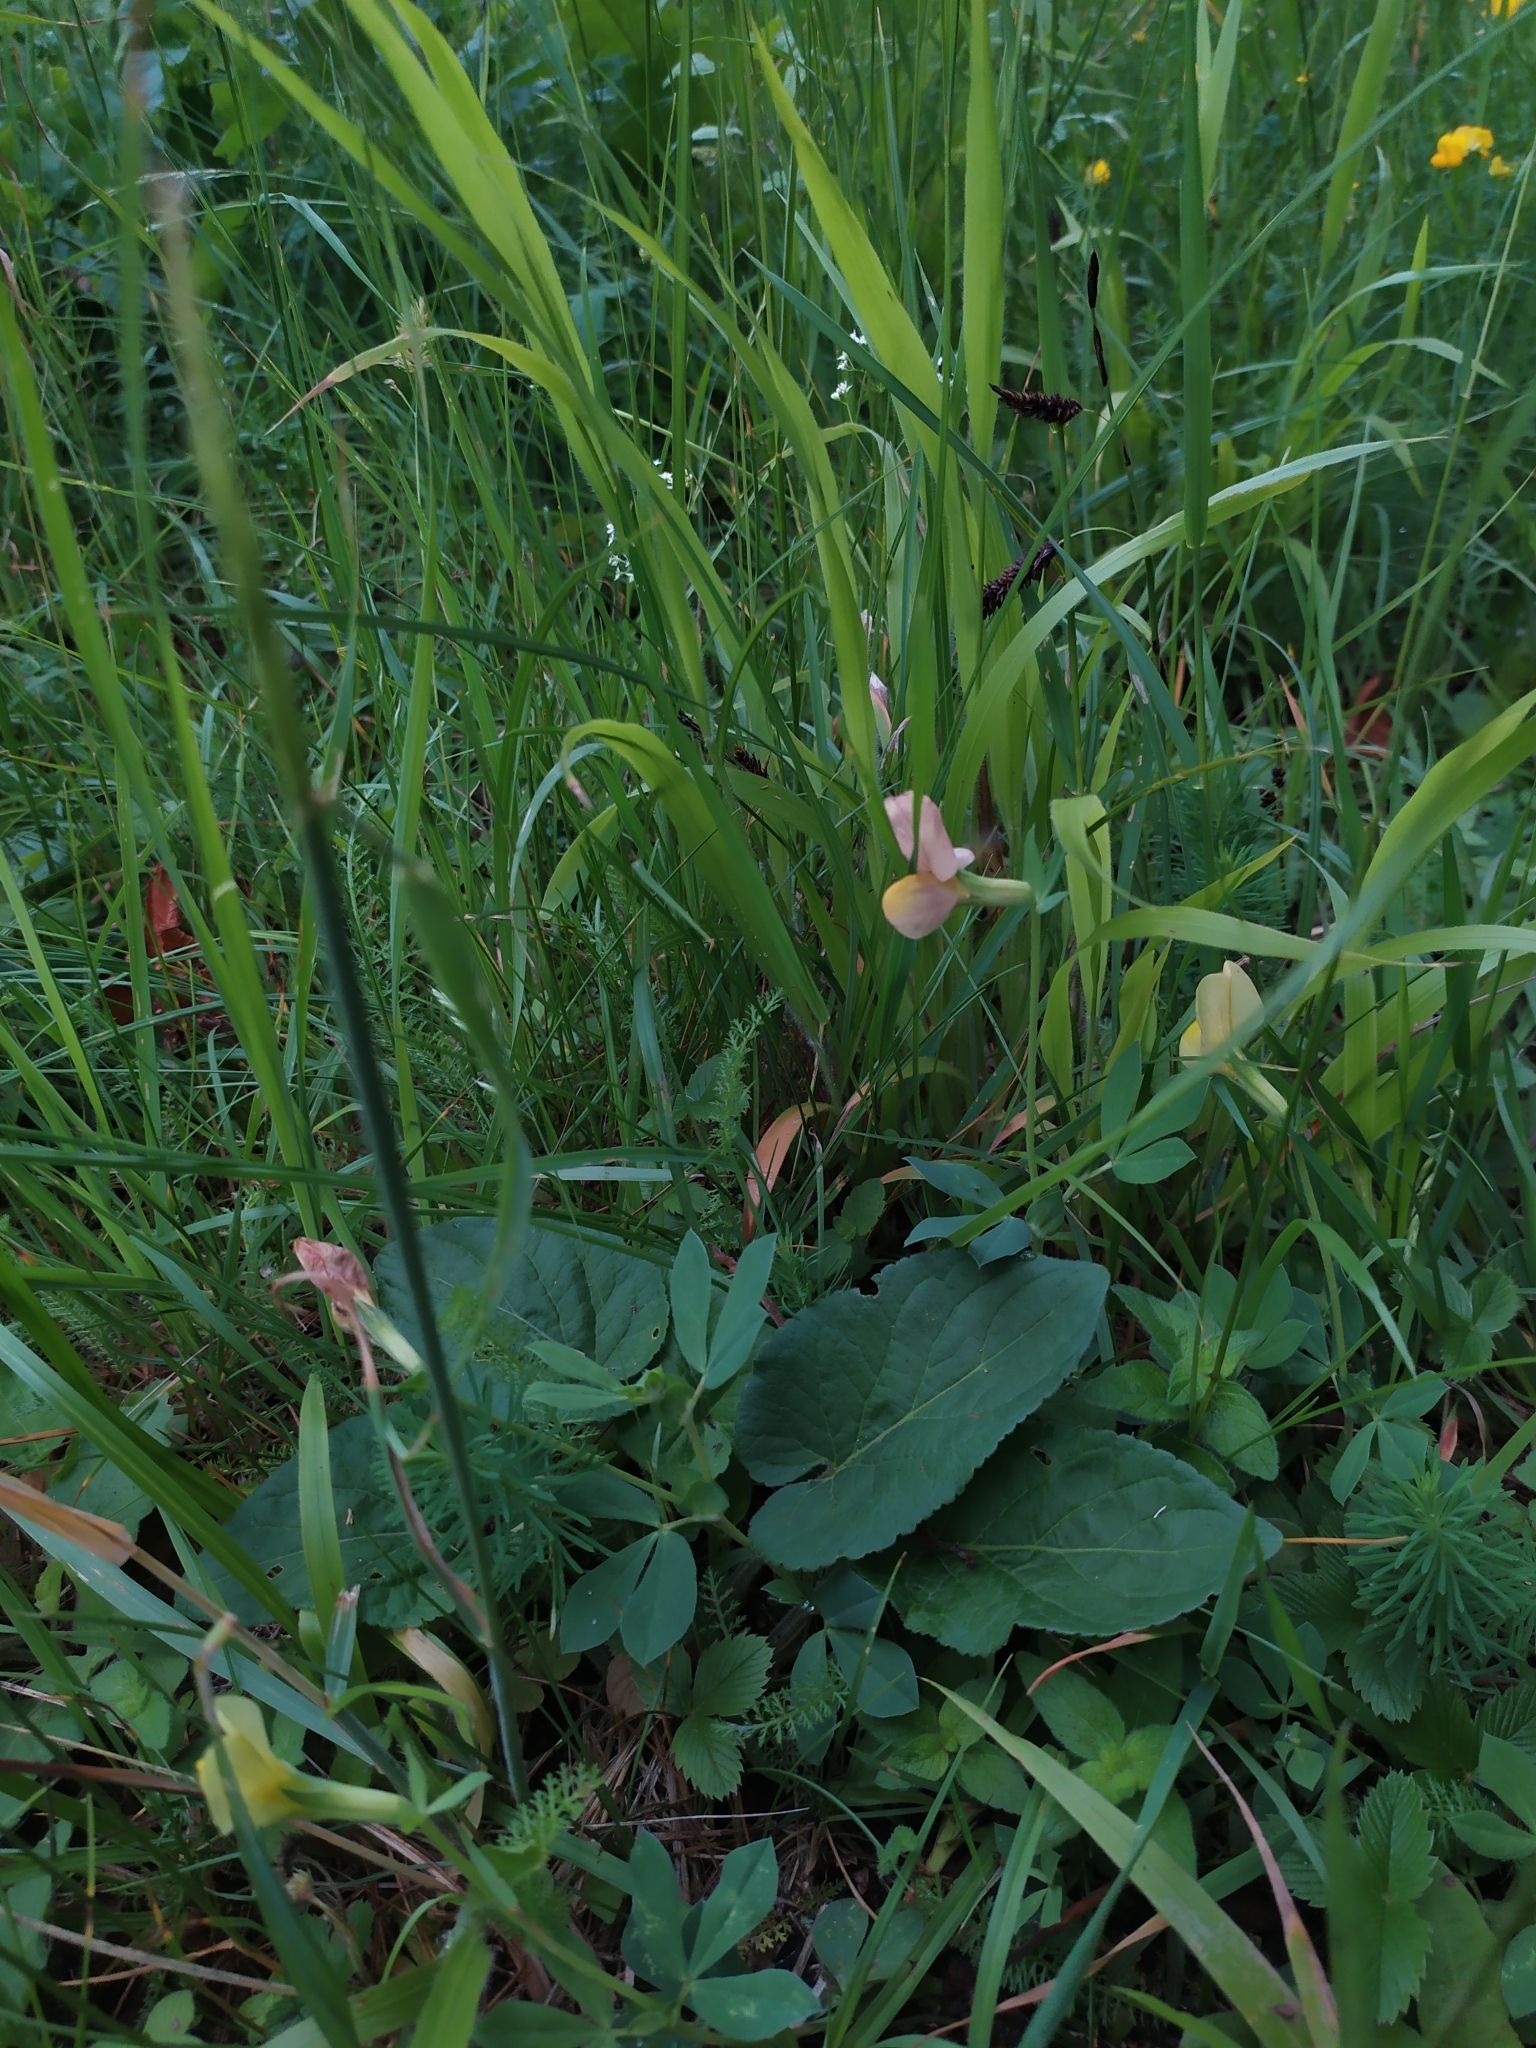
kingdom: Plantae
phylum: Tracheophyta
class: Magnoliopsida
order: Fabales
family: Fabaceae
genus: Lotus
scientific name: Lotus maritimus
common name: Dragon's-teeth
